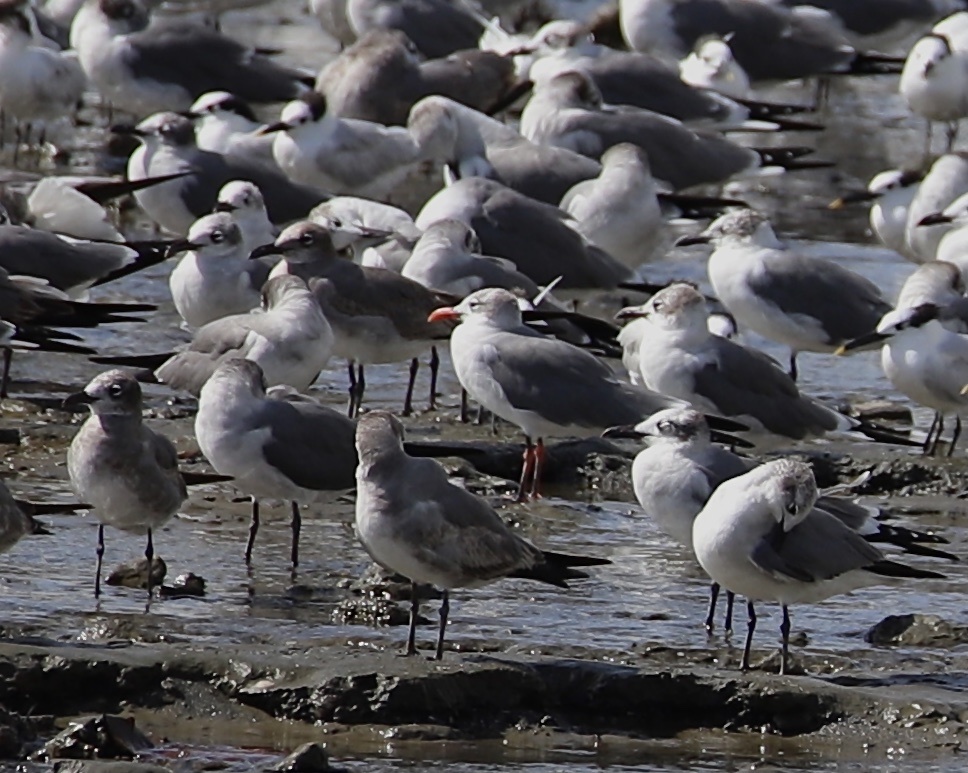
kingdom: Animalia
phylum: Chordata
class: Aves
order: Charadriiformes
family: Laridae
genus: Leucophaeus
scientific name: Leucophaeus atricilla
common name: Laughing gull
